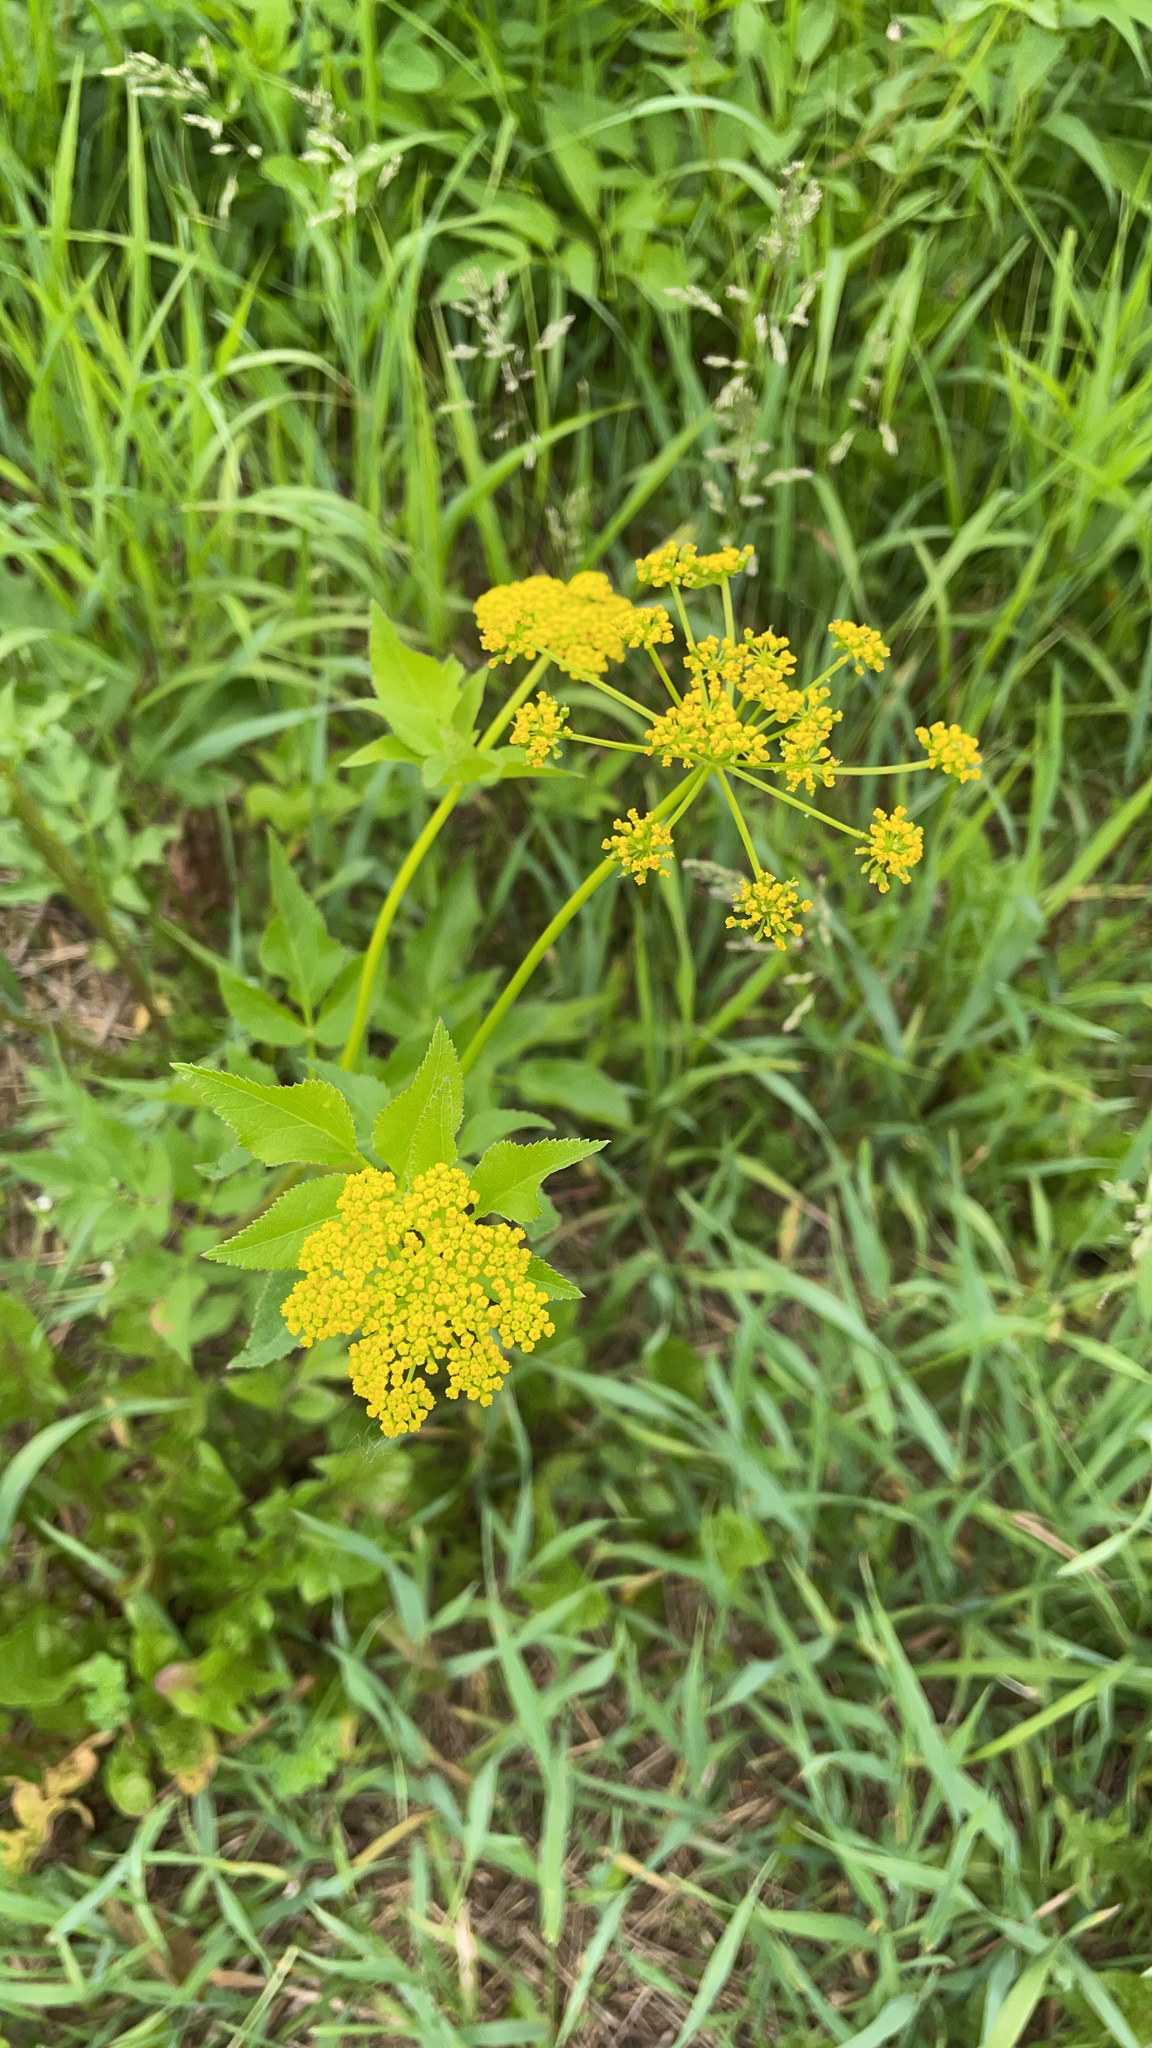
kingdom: Plantae
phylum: Tracheophyta
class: Magnoliopsida
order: Apiales
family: Apiaceae
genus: Zizia
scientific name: Zizia aurea
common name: Golden alexanders
